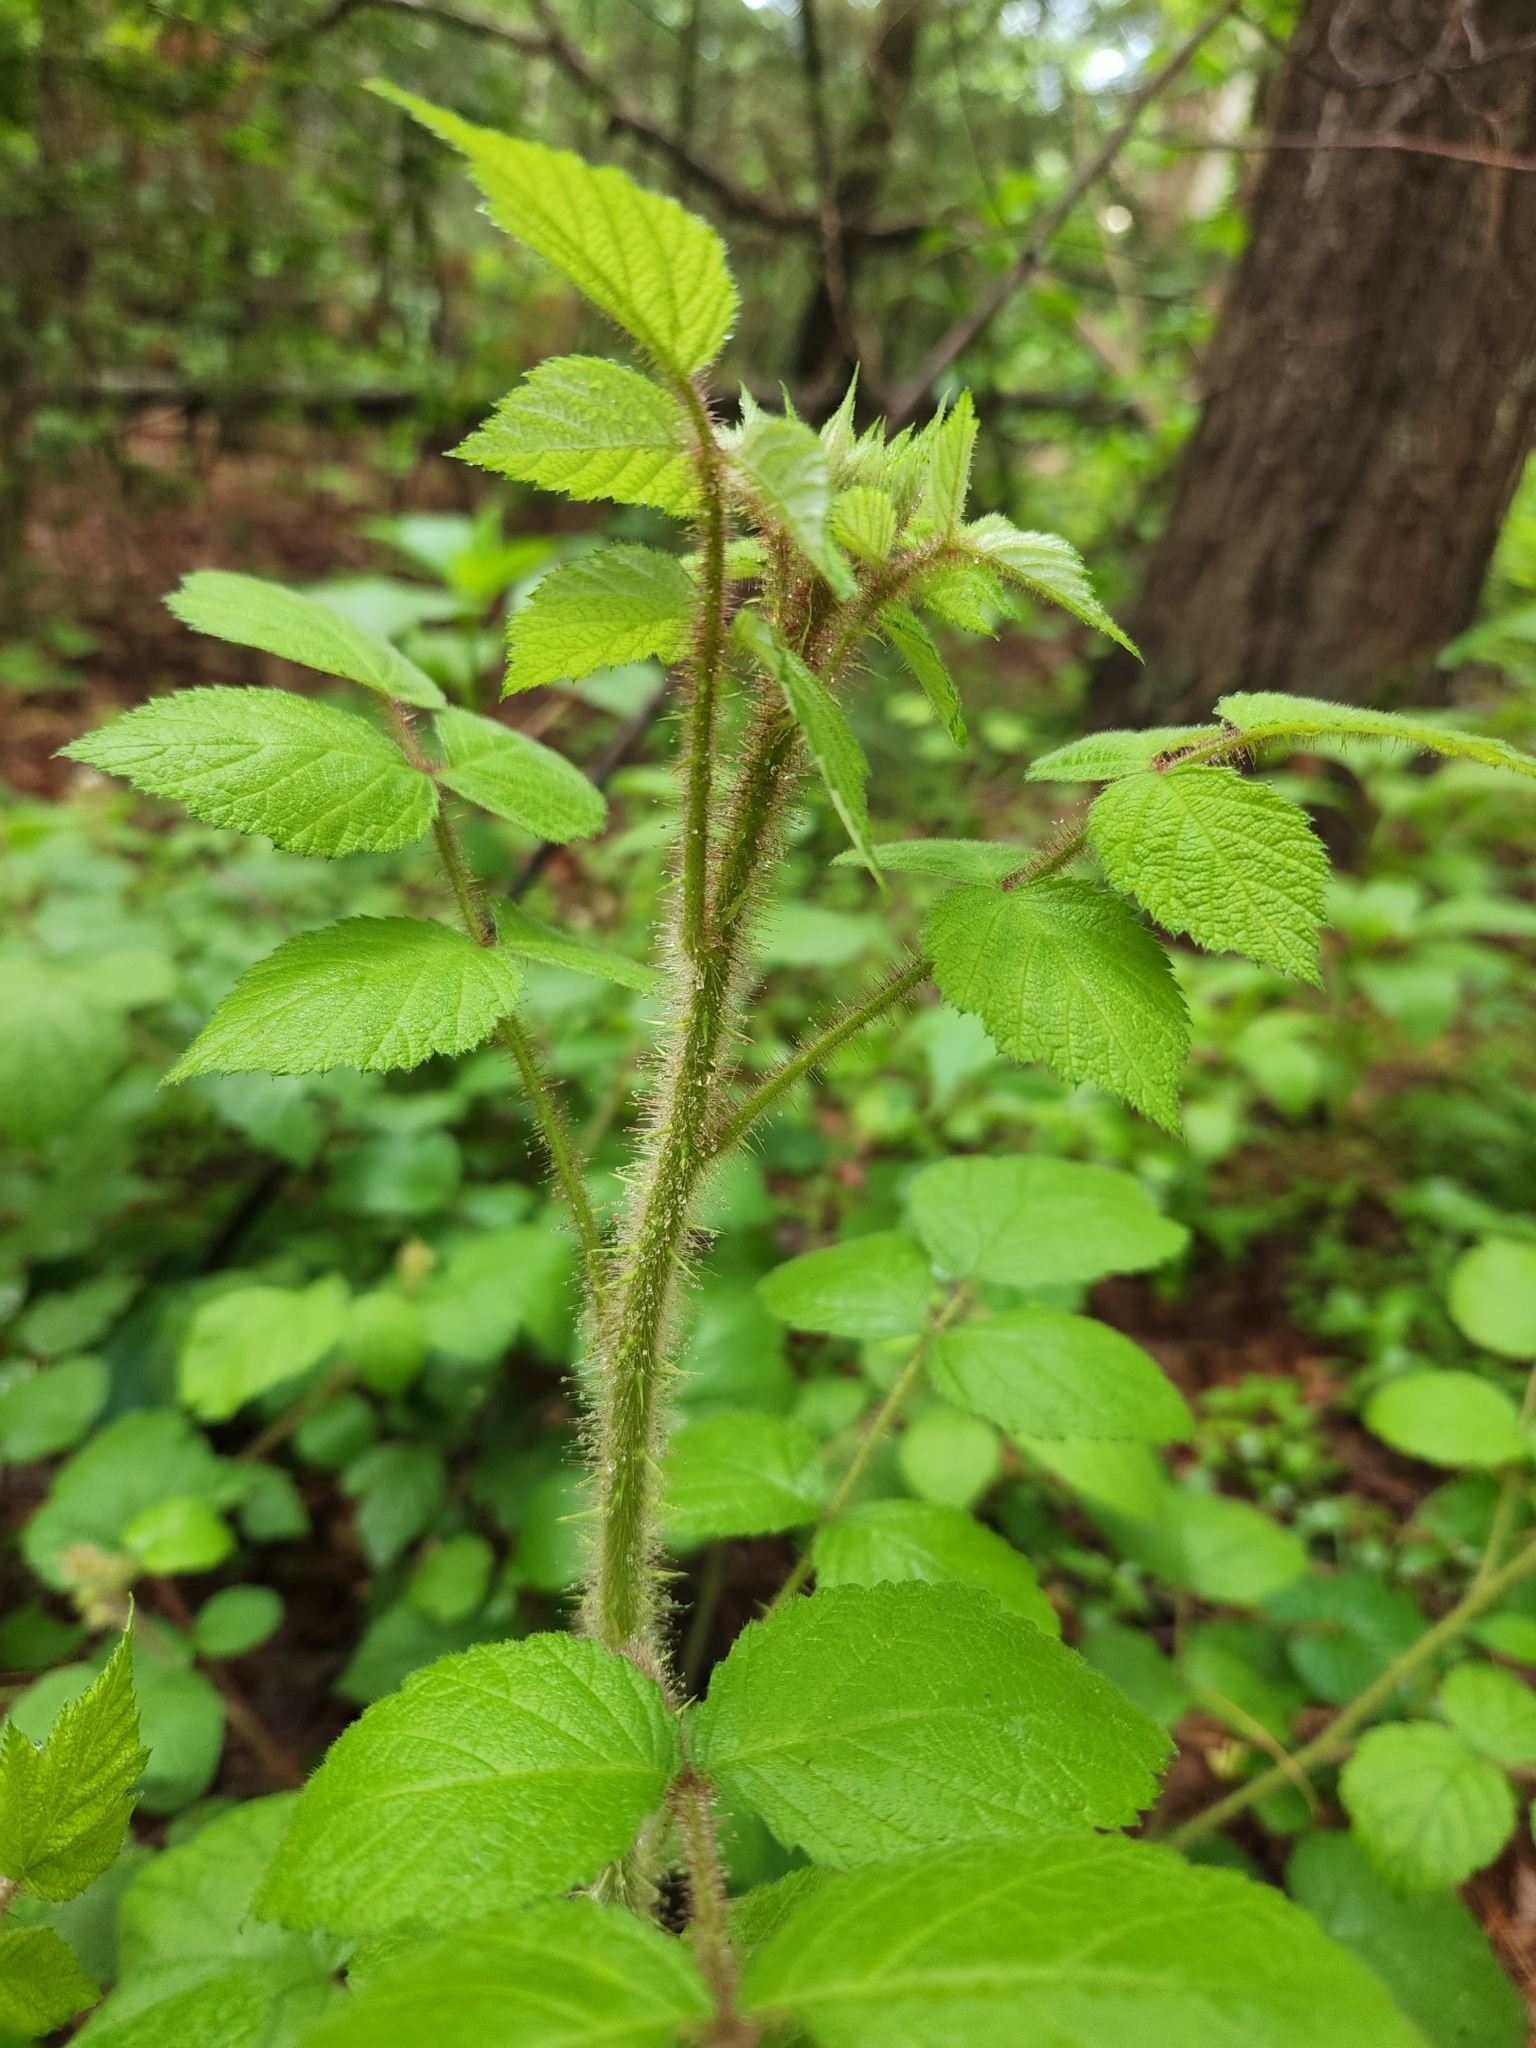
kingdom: Plantae
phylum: Tracheophyta
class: Magnoliopsida
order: Rosales
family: Rosaceae
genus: Rubus
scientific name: Rubus phoenicolasius
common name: Japanese wineberry
